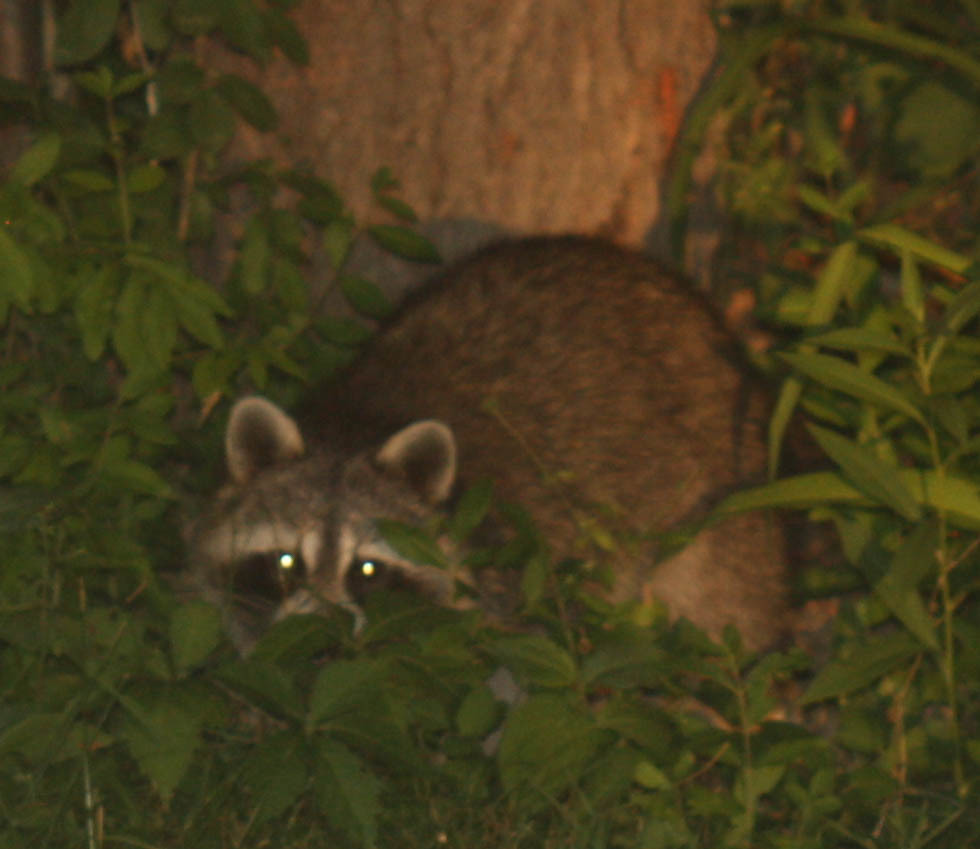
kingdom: Animalia
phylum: Chordata
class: Mammalia
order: Carnivora
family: Procyonidae
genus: Procyon
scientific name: Procyon lotor
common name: Raccoon
